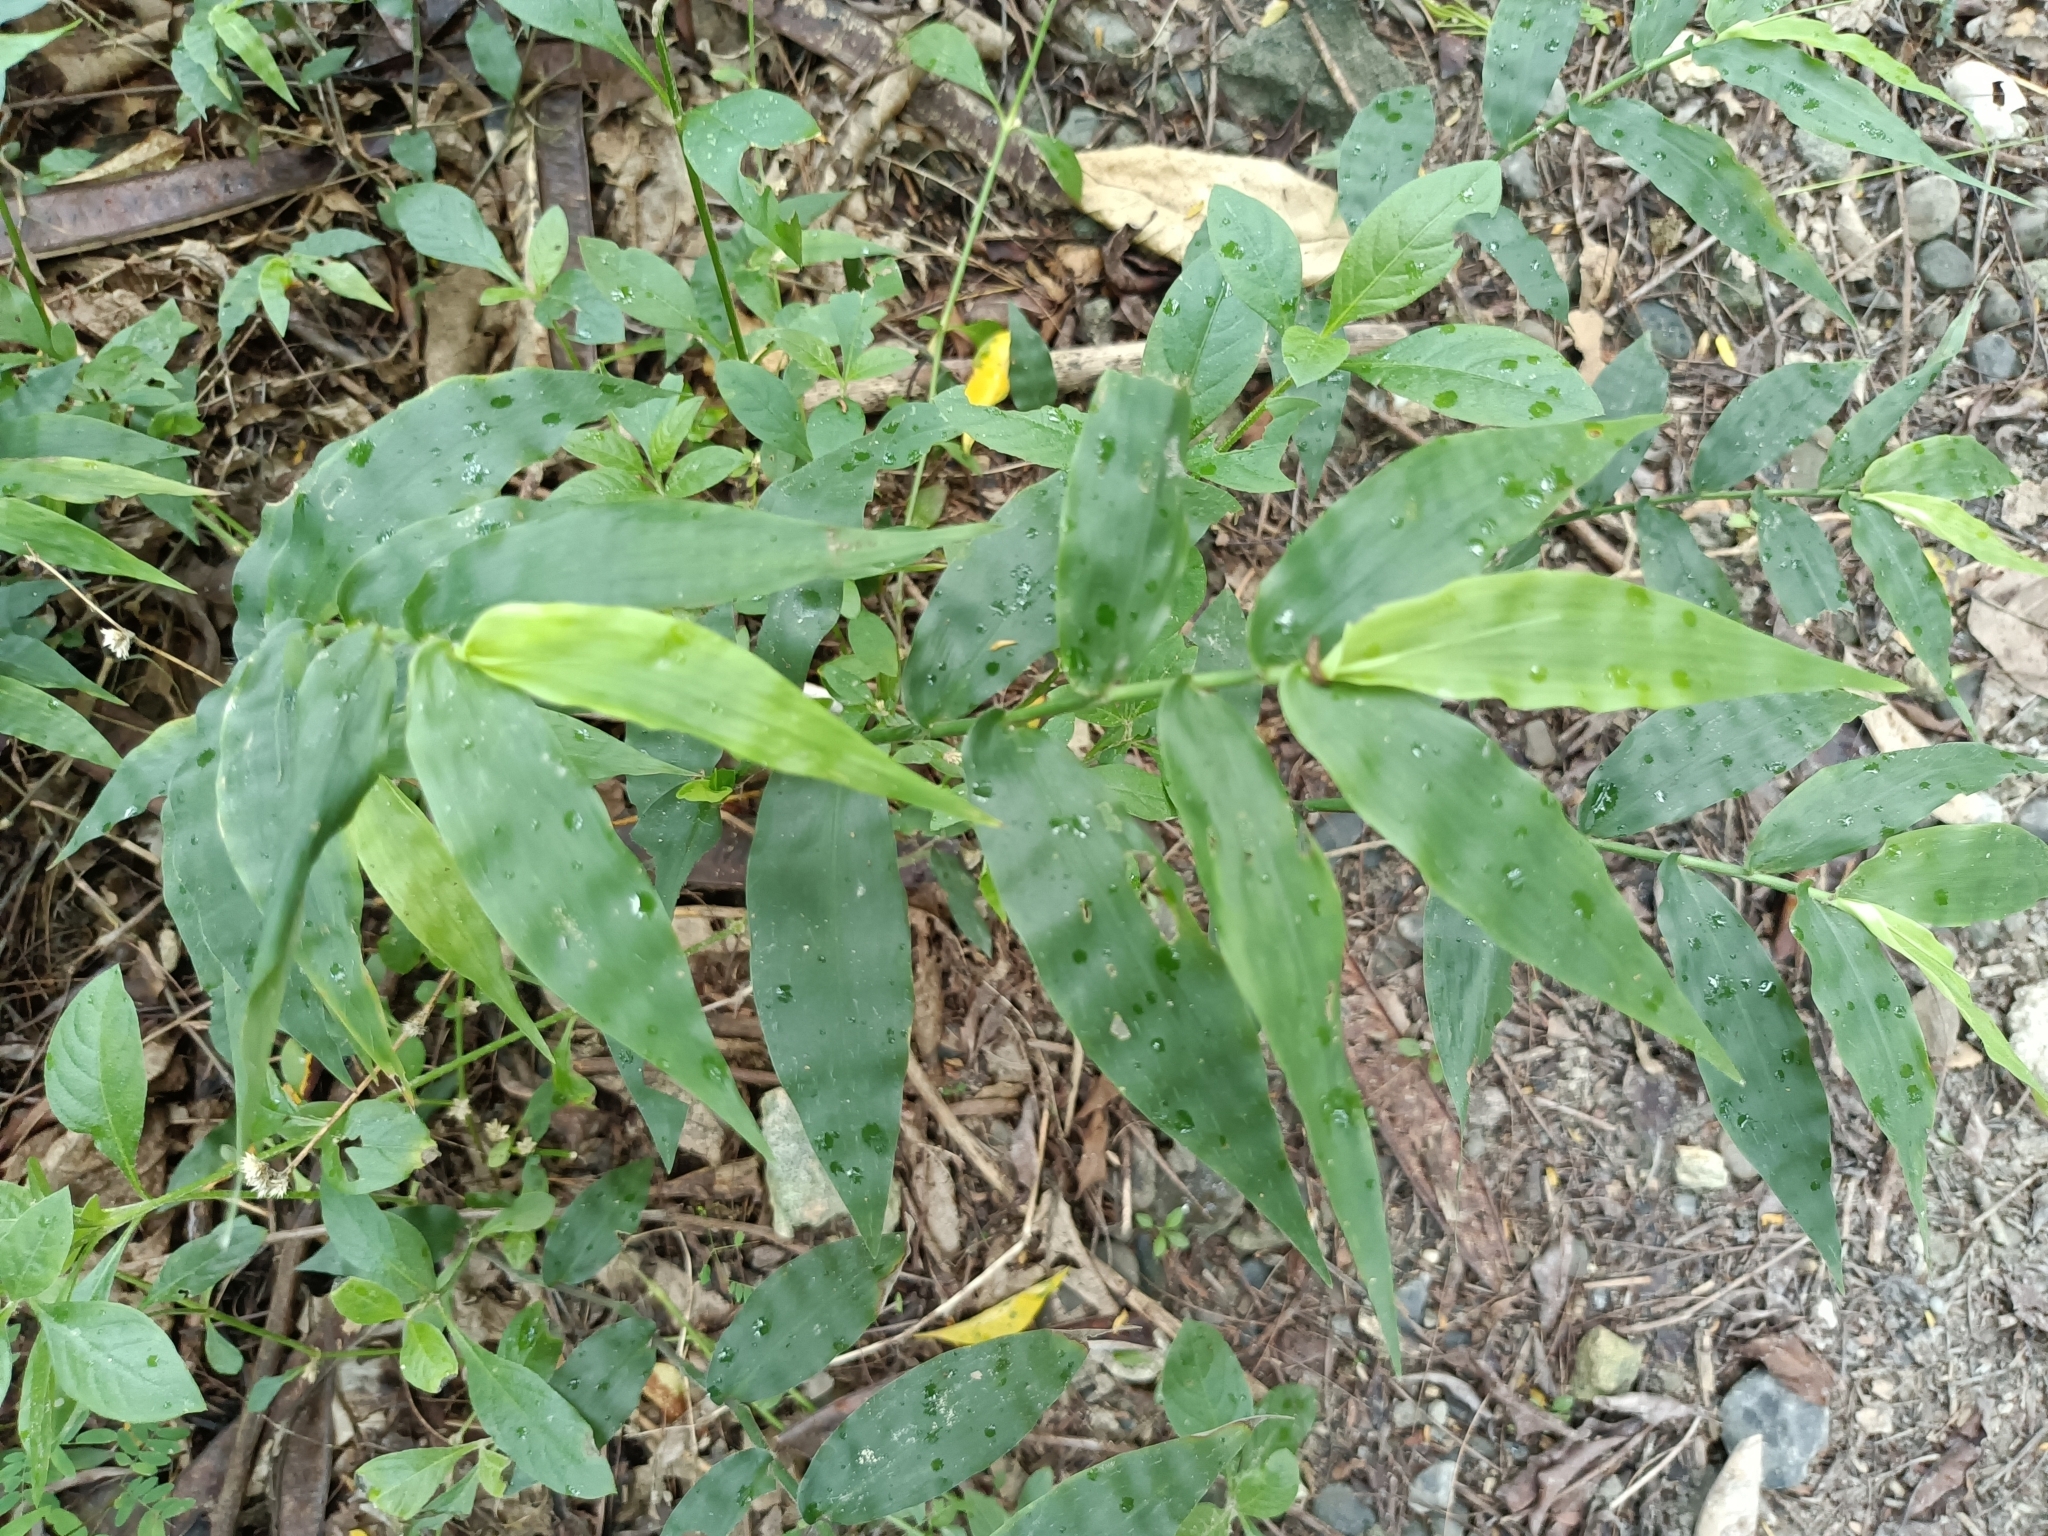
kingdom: Plantae
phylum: Tracheophyta
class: Liliopsida
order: Poales
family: Poaceae
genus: Oplismenus
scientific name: Oplismenus compositus
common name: Running mountain grass
